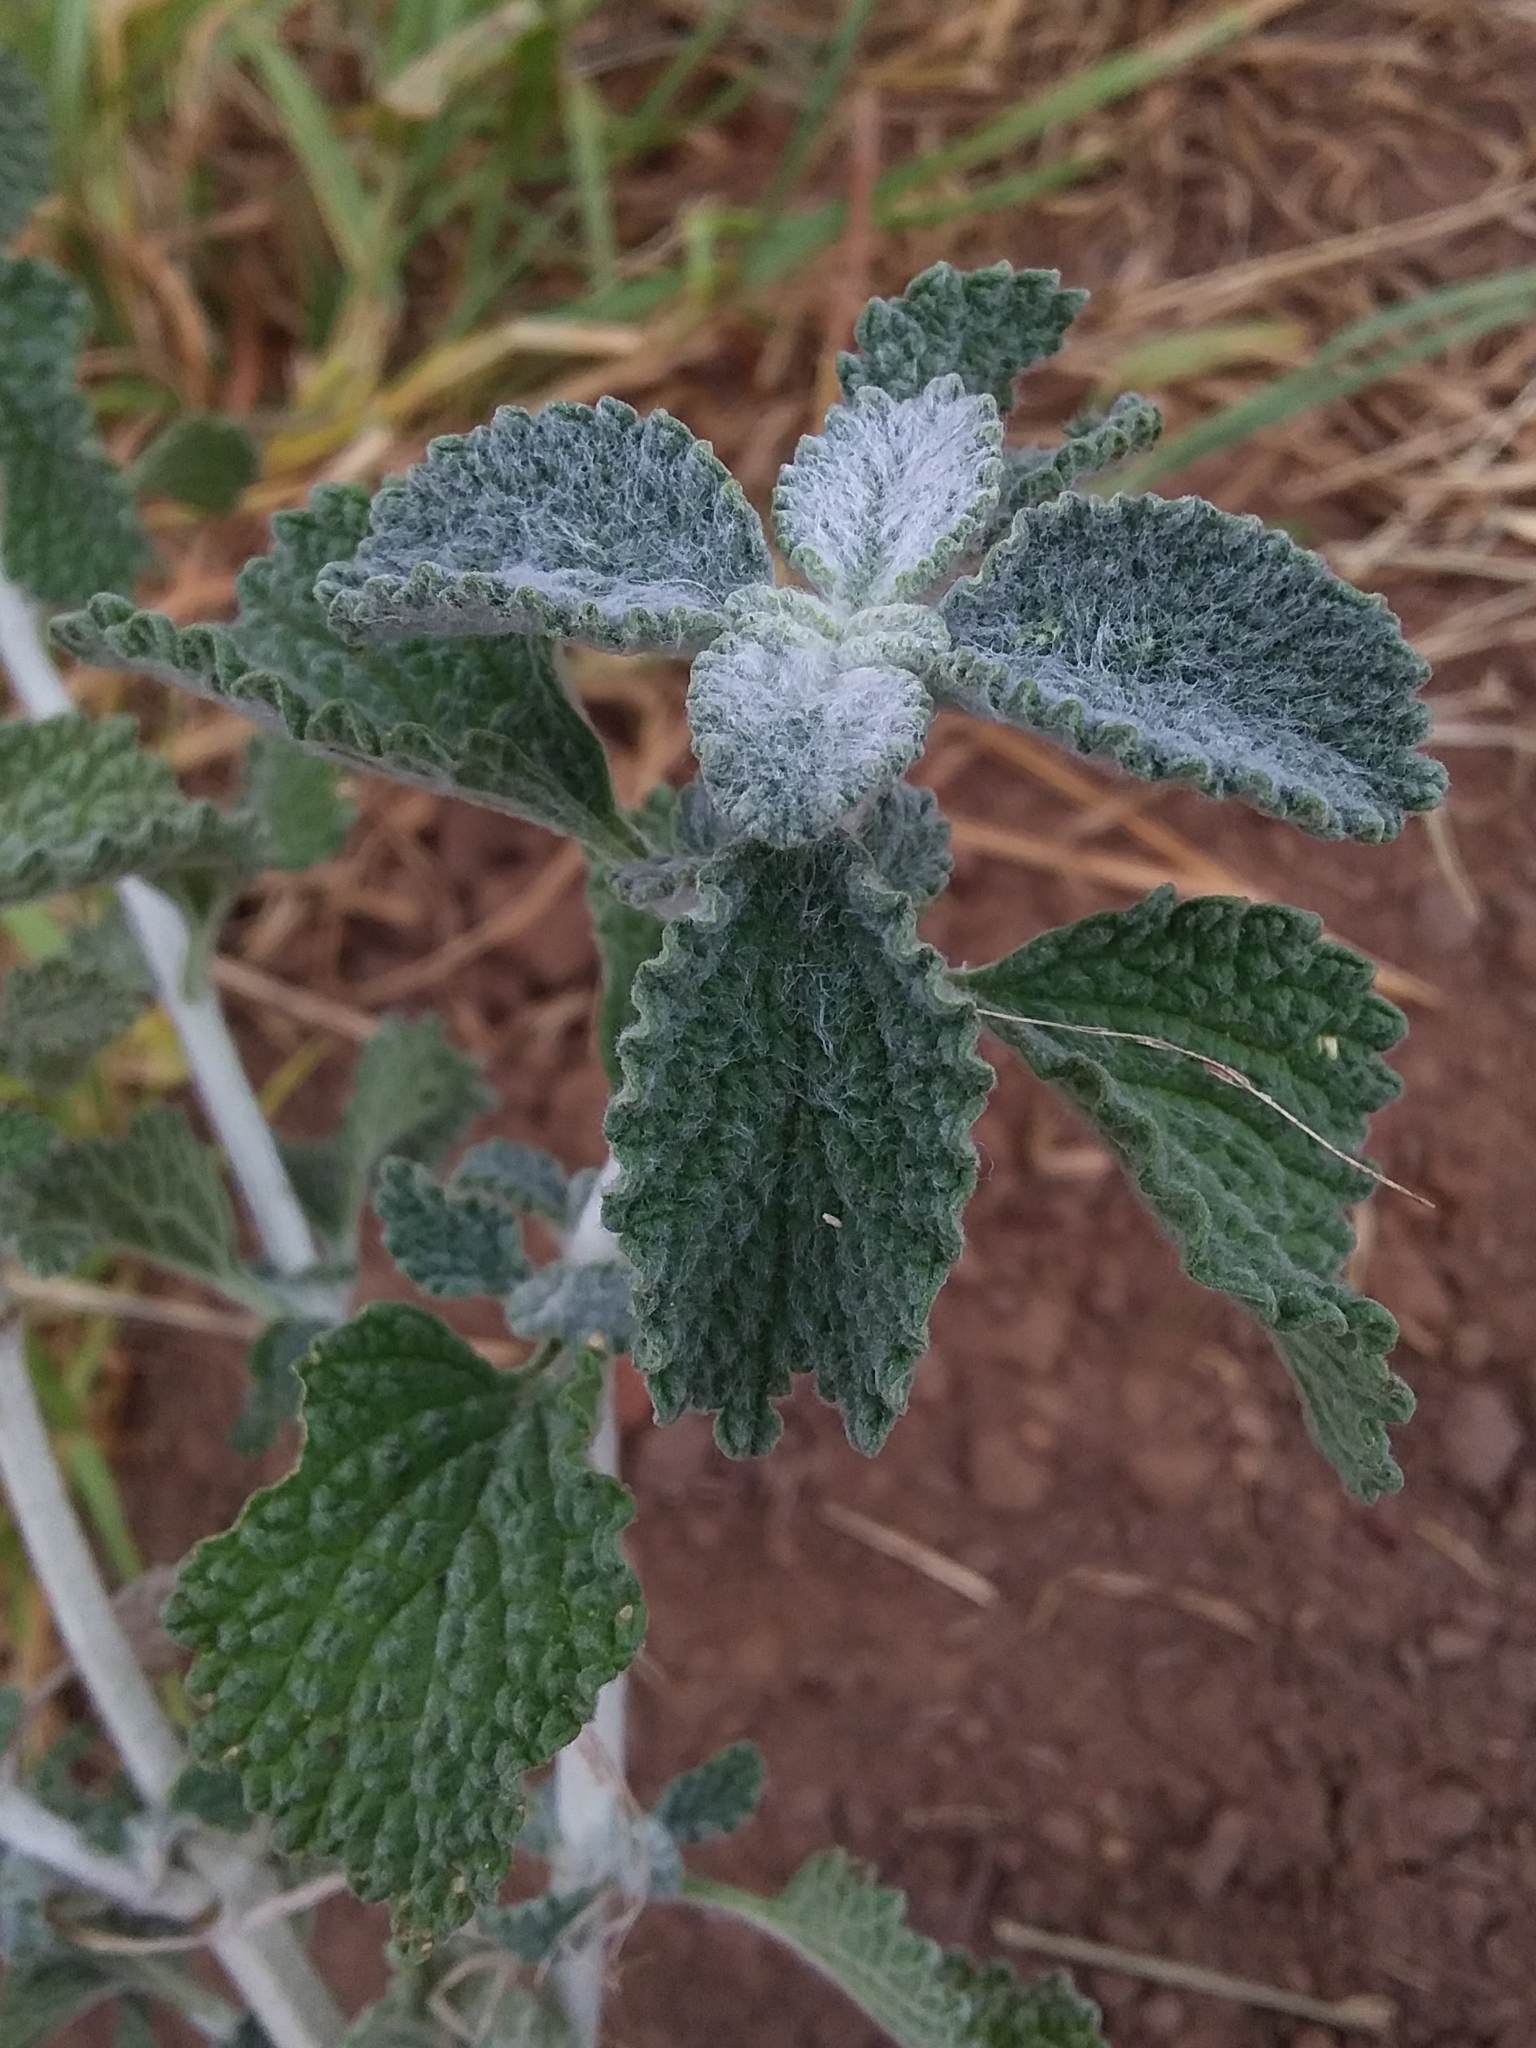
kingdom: Plantae
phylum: Tracheophyta
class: Magnoliopsida
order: Lamiales
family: Lamiaceae
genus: Marrubium
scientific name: Marrubium vulgare
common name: Horehound
